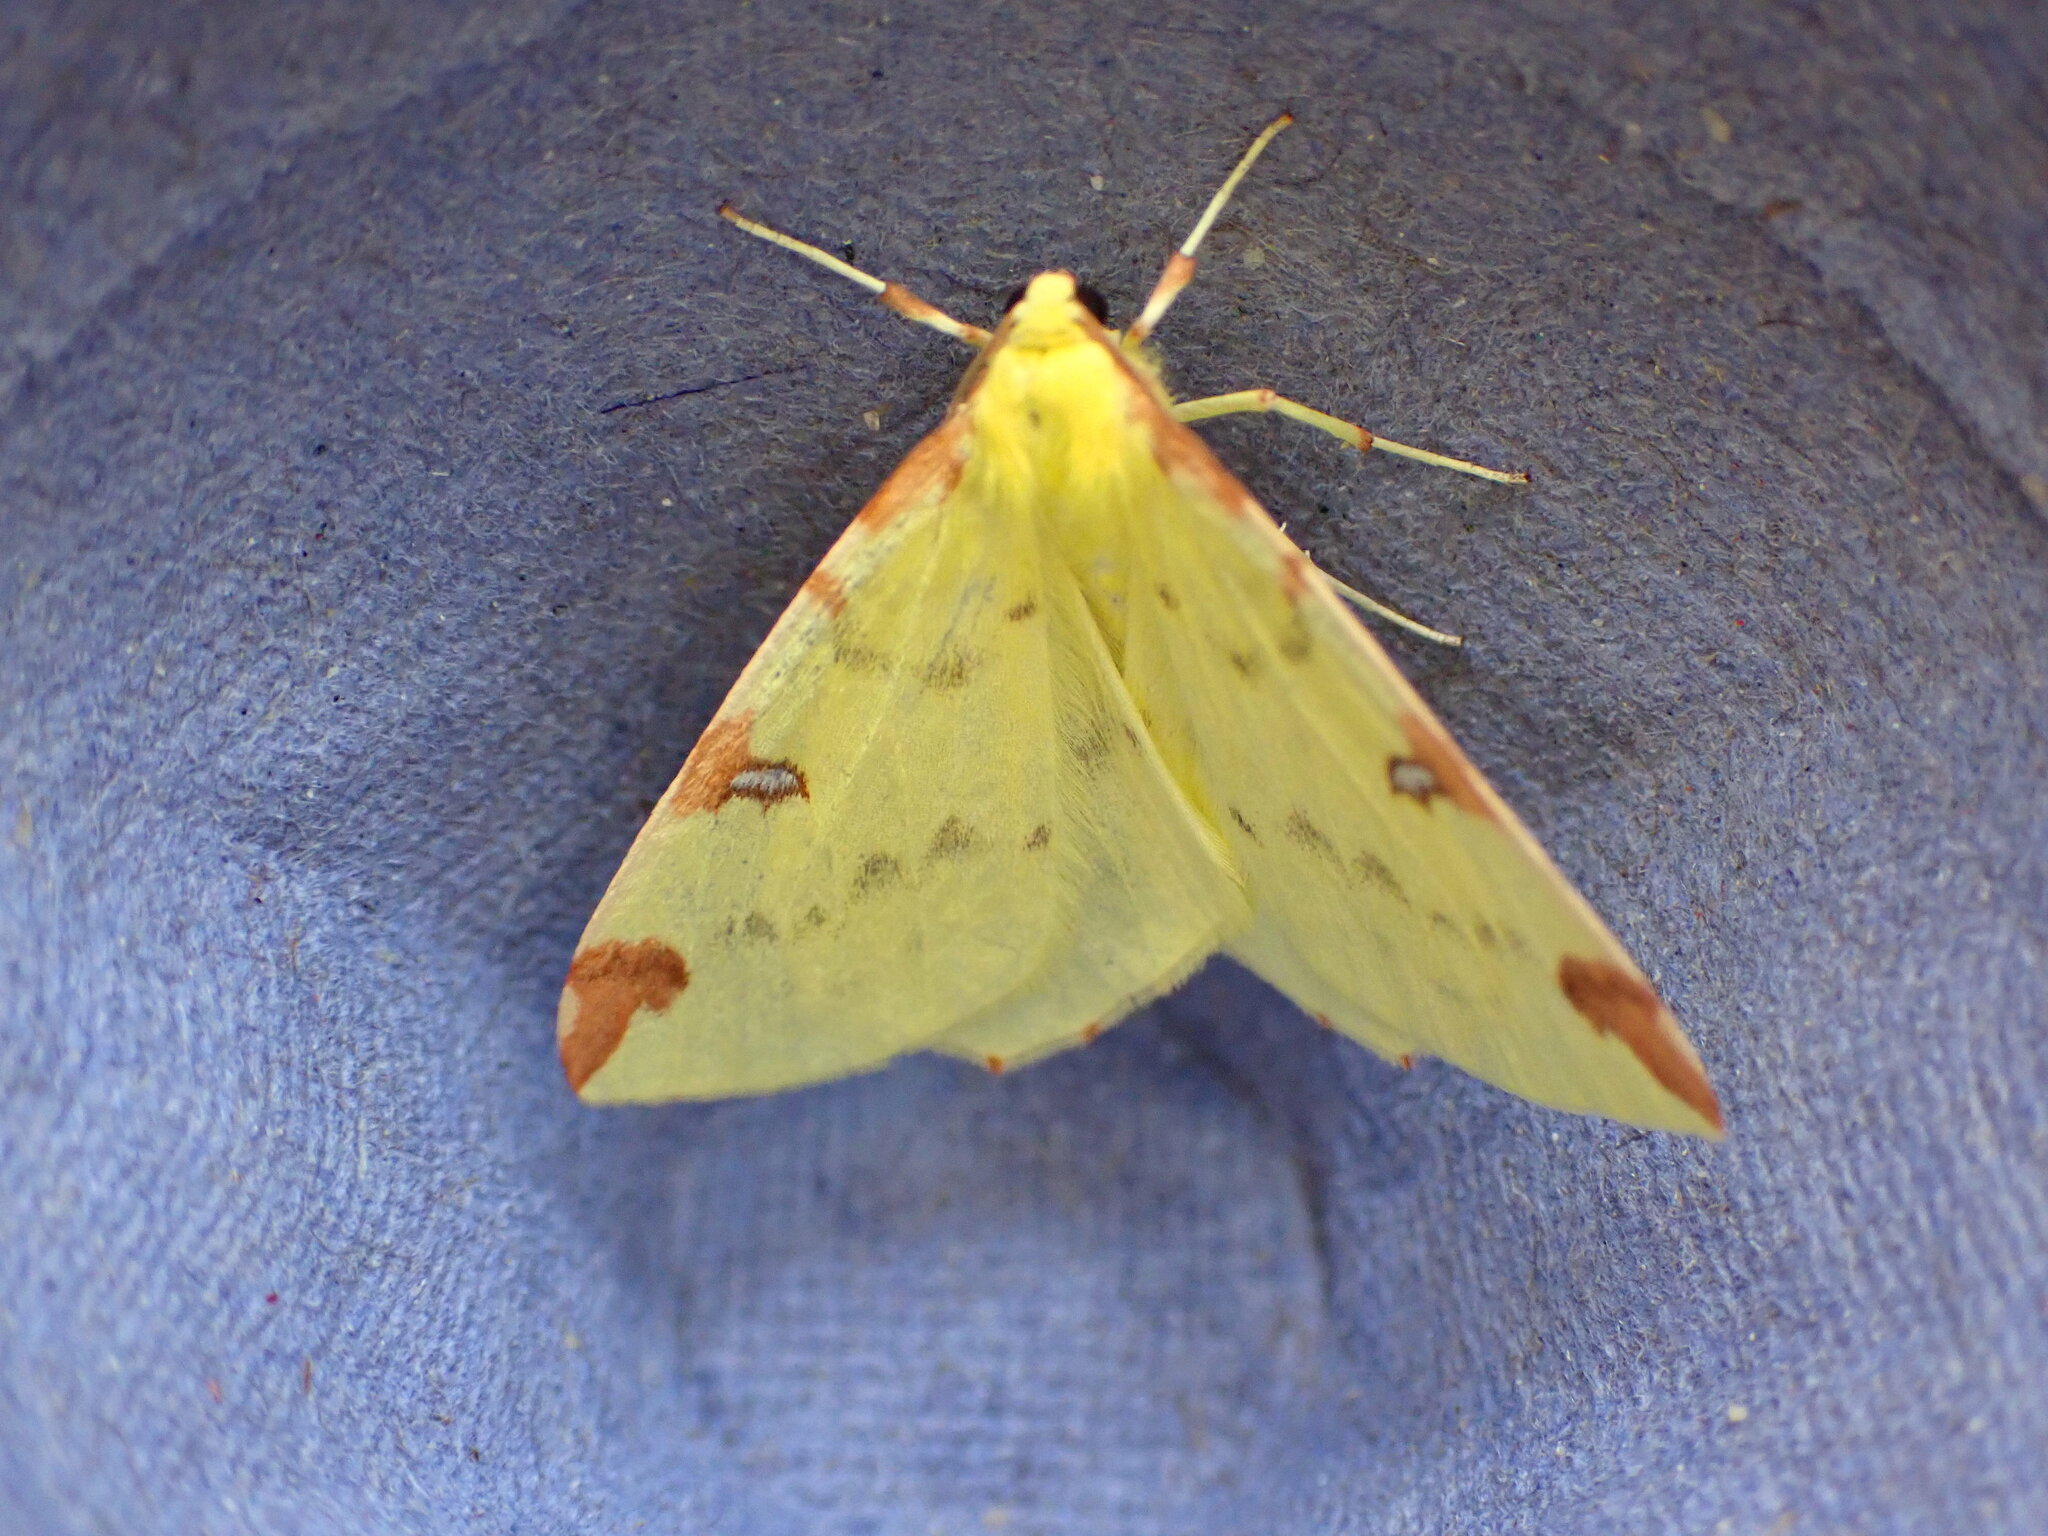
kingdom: Animalia
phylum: Arthropoda
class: Insecta
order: Lepidoptera
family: Geometridae
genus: Opisthograptis
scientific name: Opisthograptis luteolata
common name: Brimstone moth
